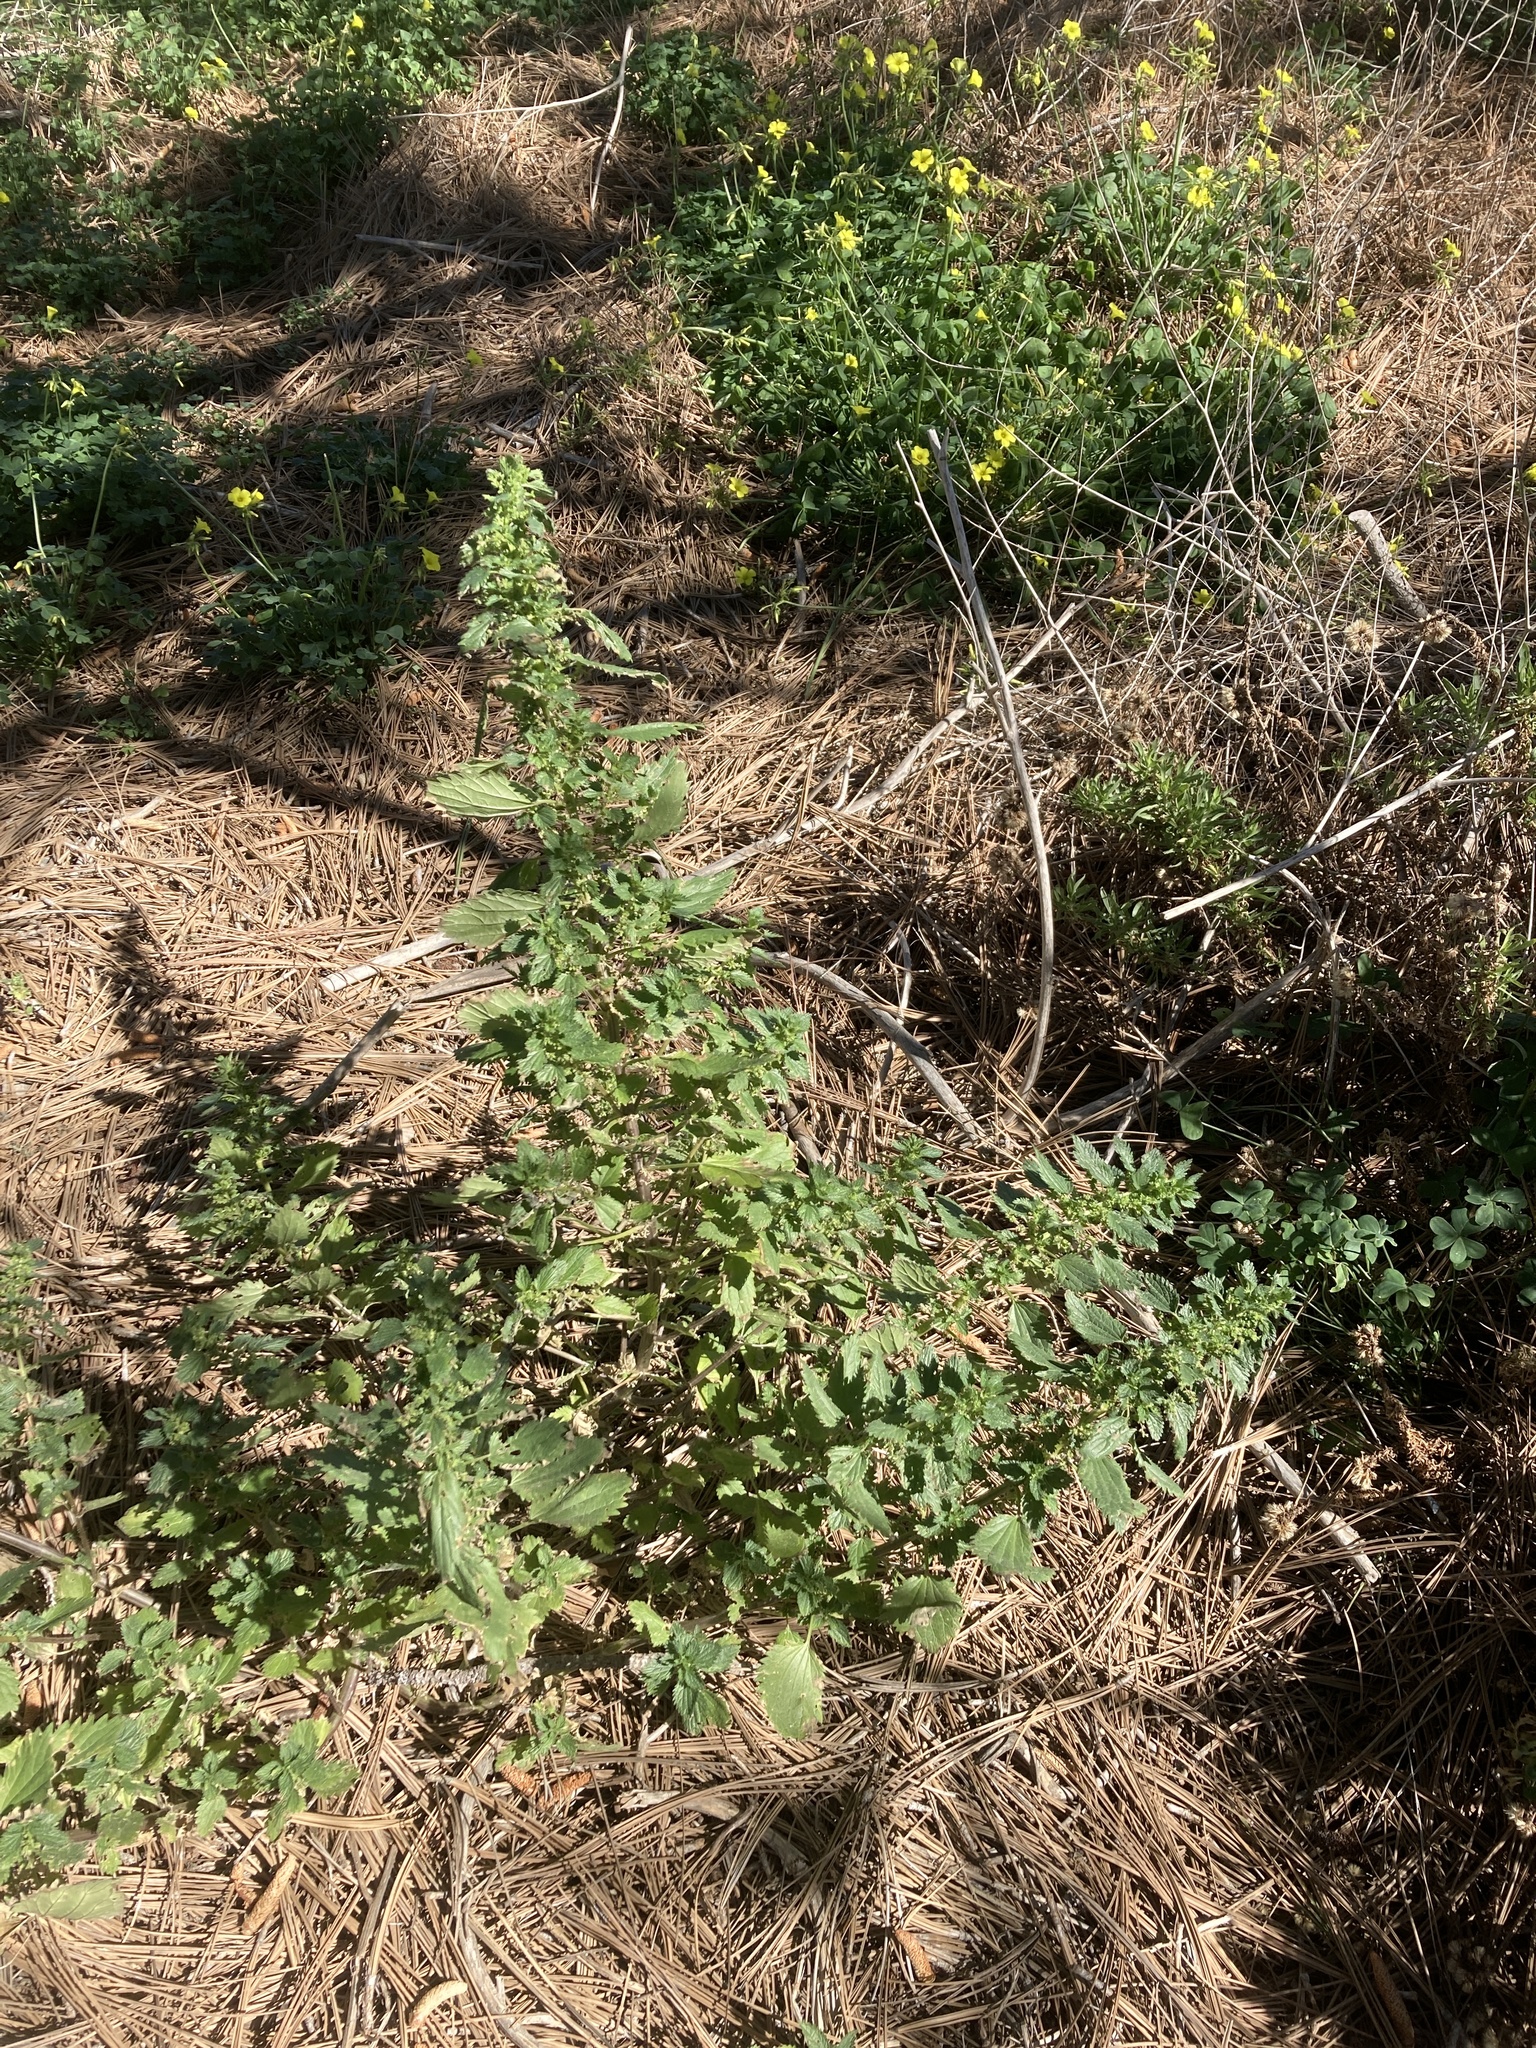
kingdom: Plantae
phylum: Tracheophyta
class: Magnoliopsida
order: Rosales
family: Urticaceae
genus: Urtica
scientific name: Urtica urens
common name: Dwarf nettle
